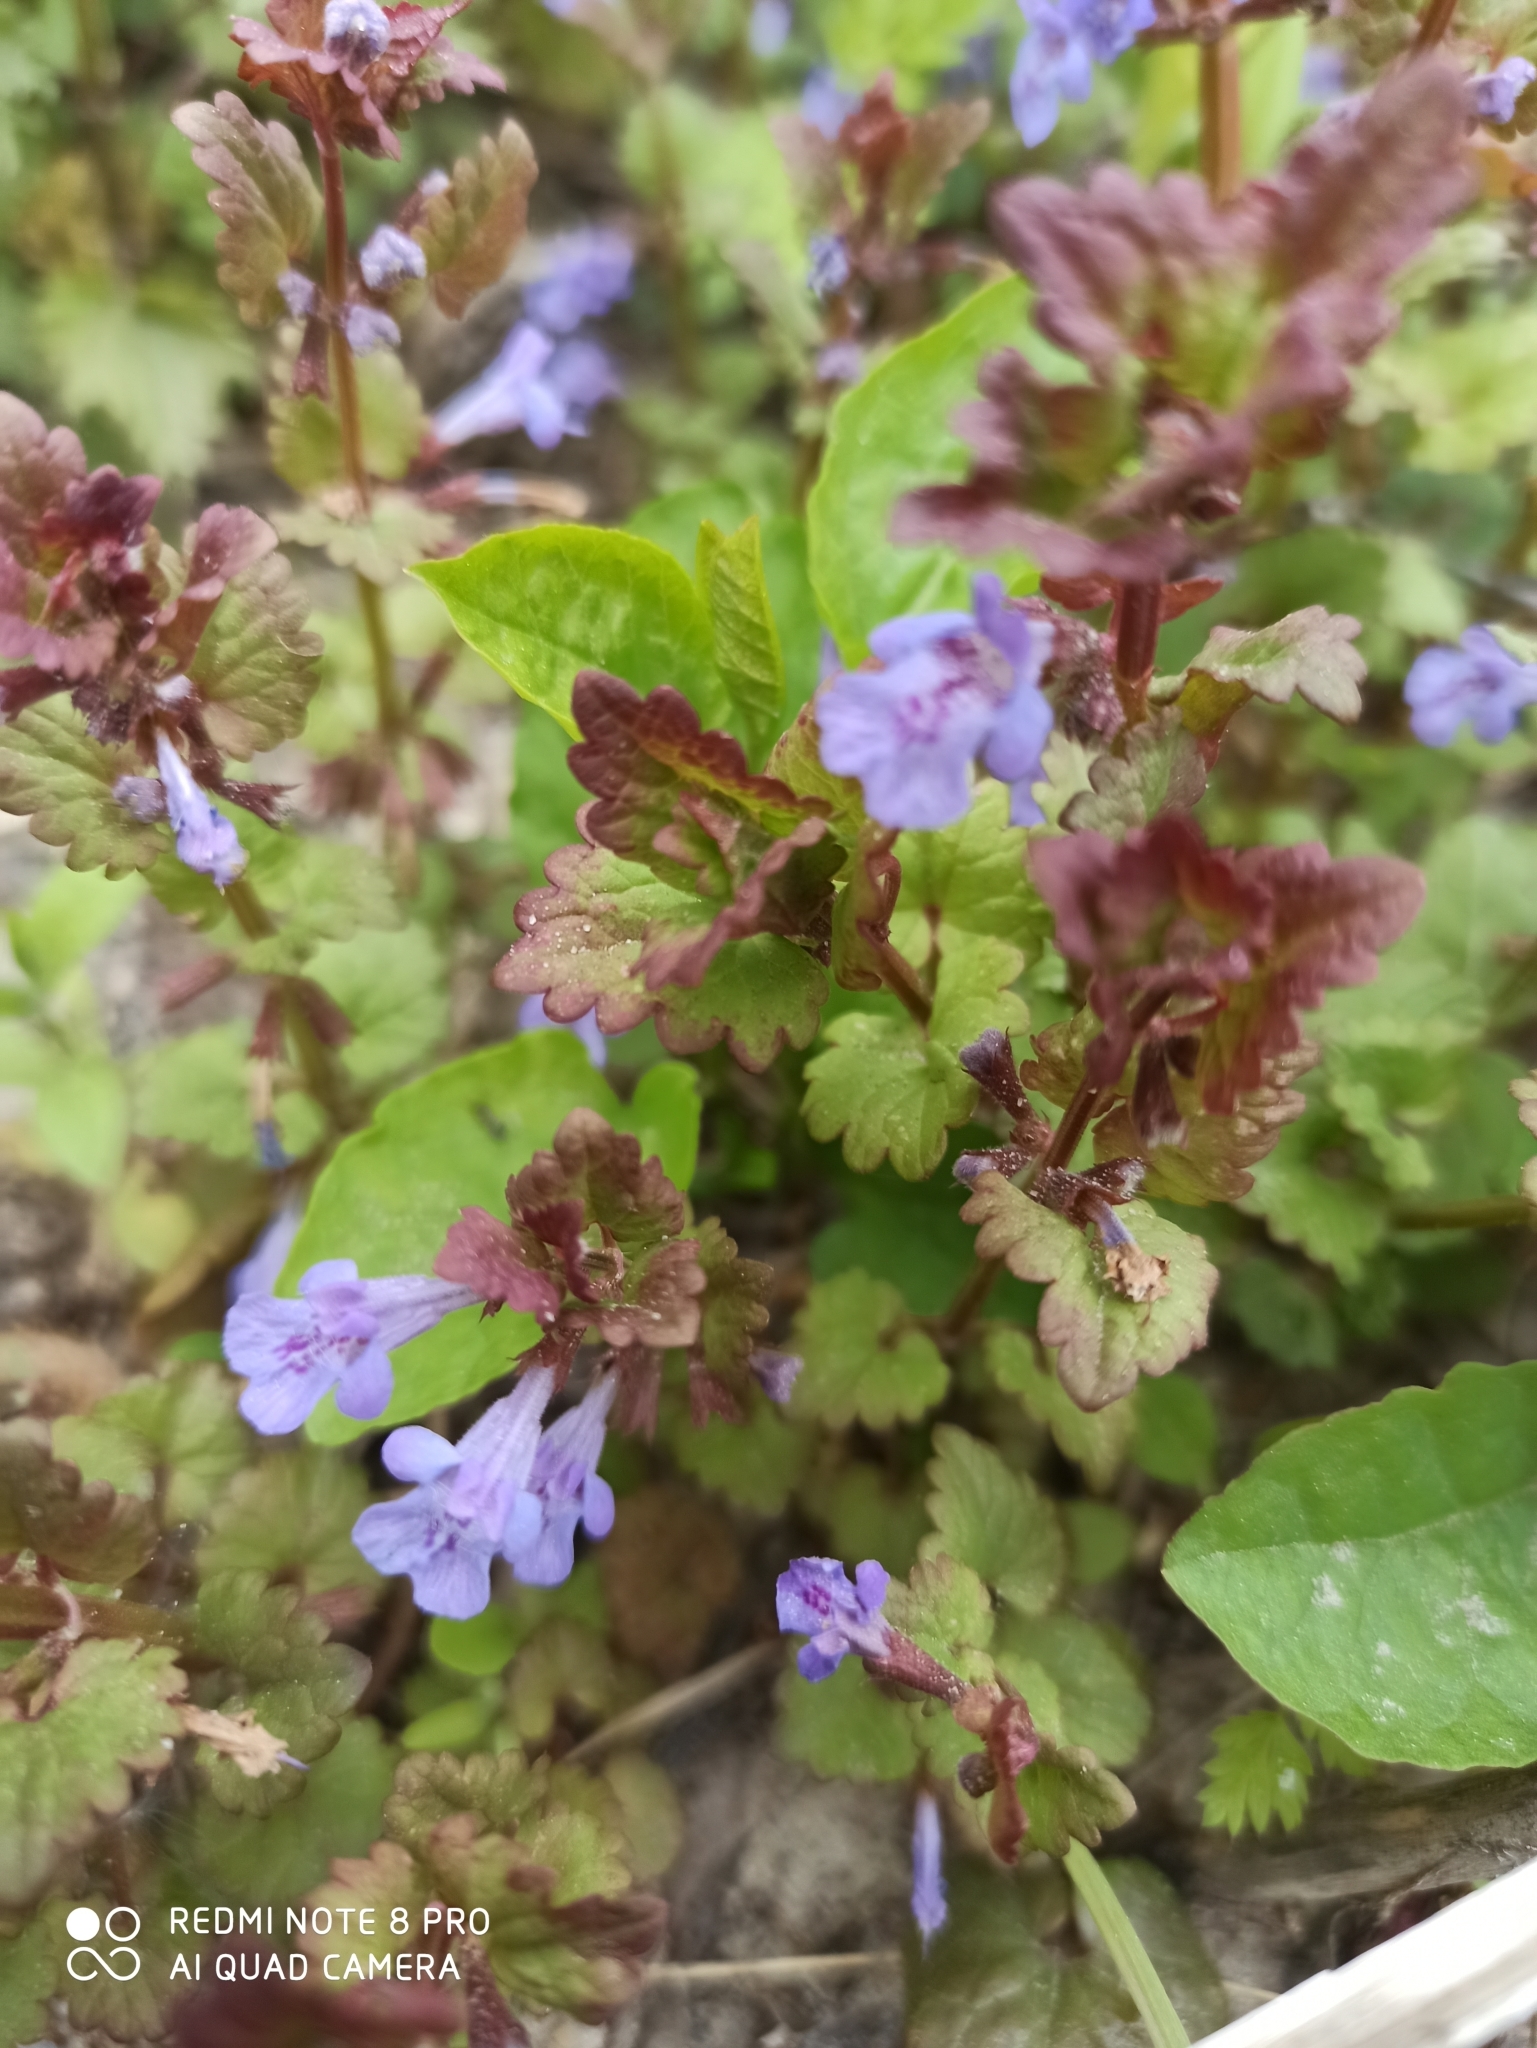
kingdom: Plantae
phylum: Tracheophyta
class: Magnoliopsida
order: Lamiales
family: Lamiaceae
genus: Glechoma
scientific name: Glechoma hederacea
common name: Ground ivy
